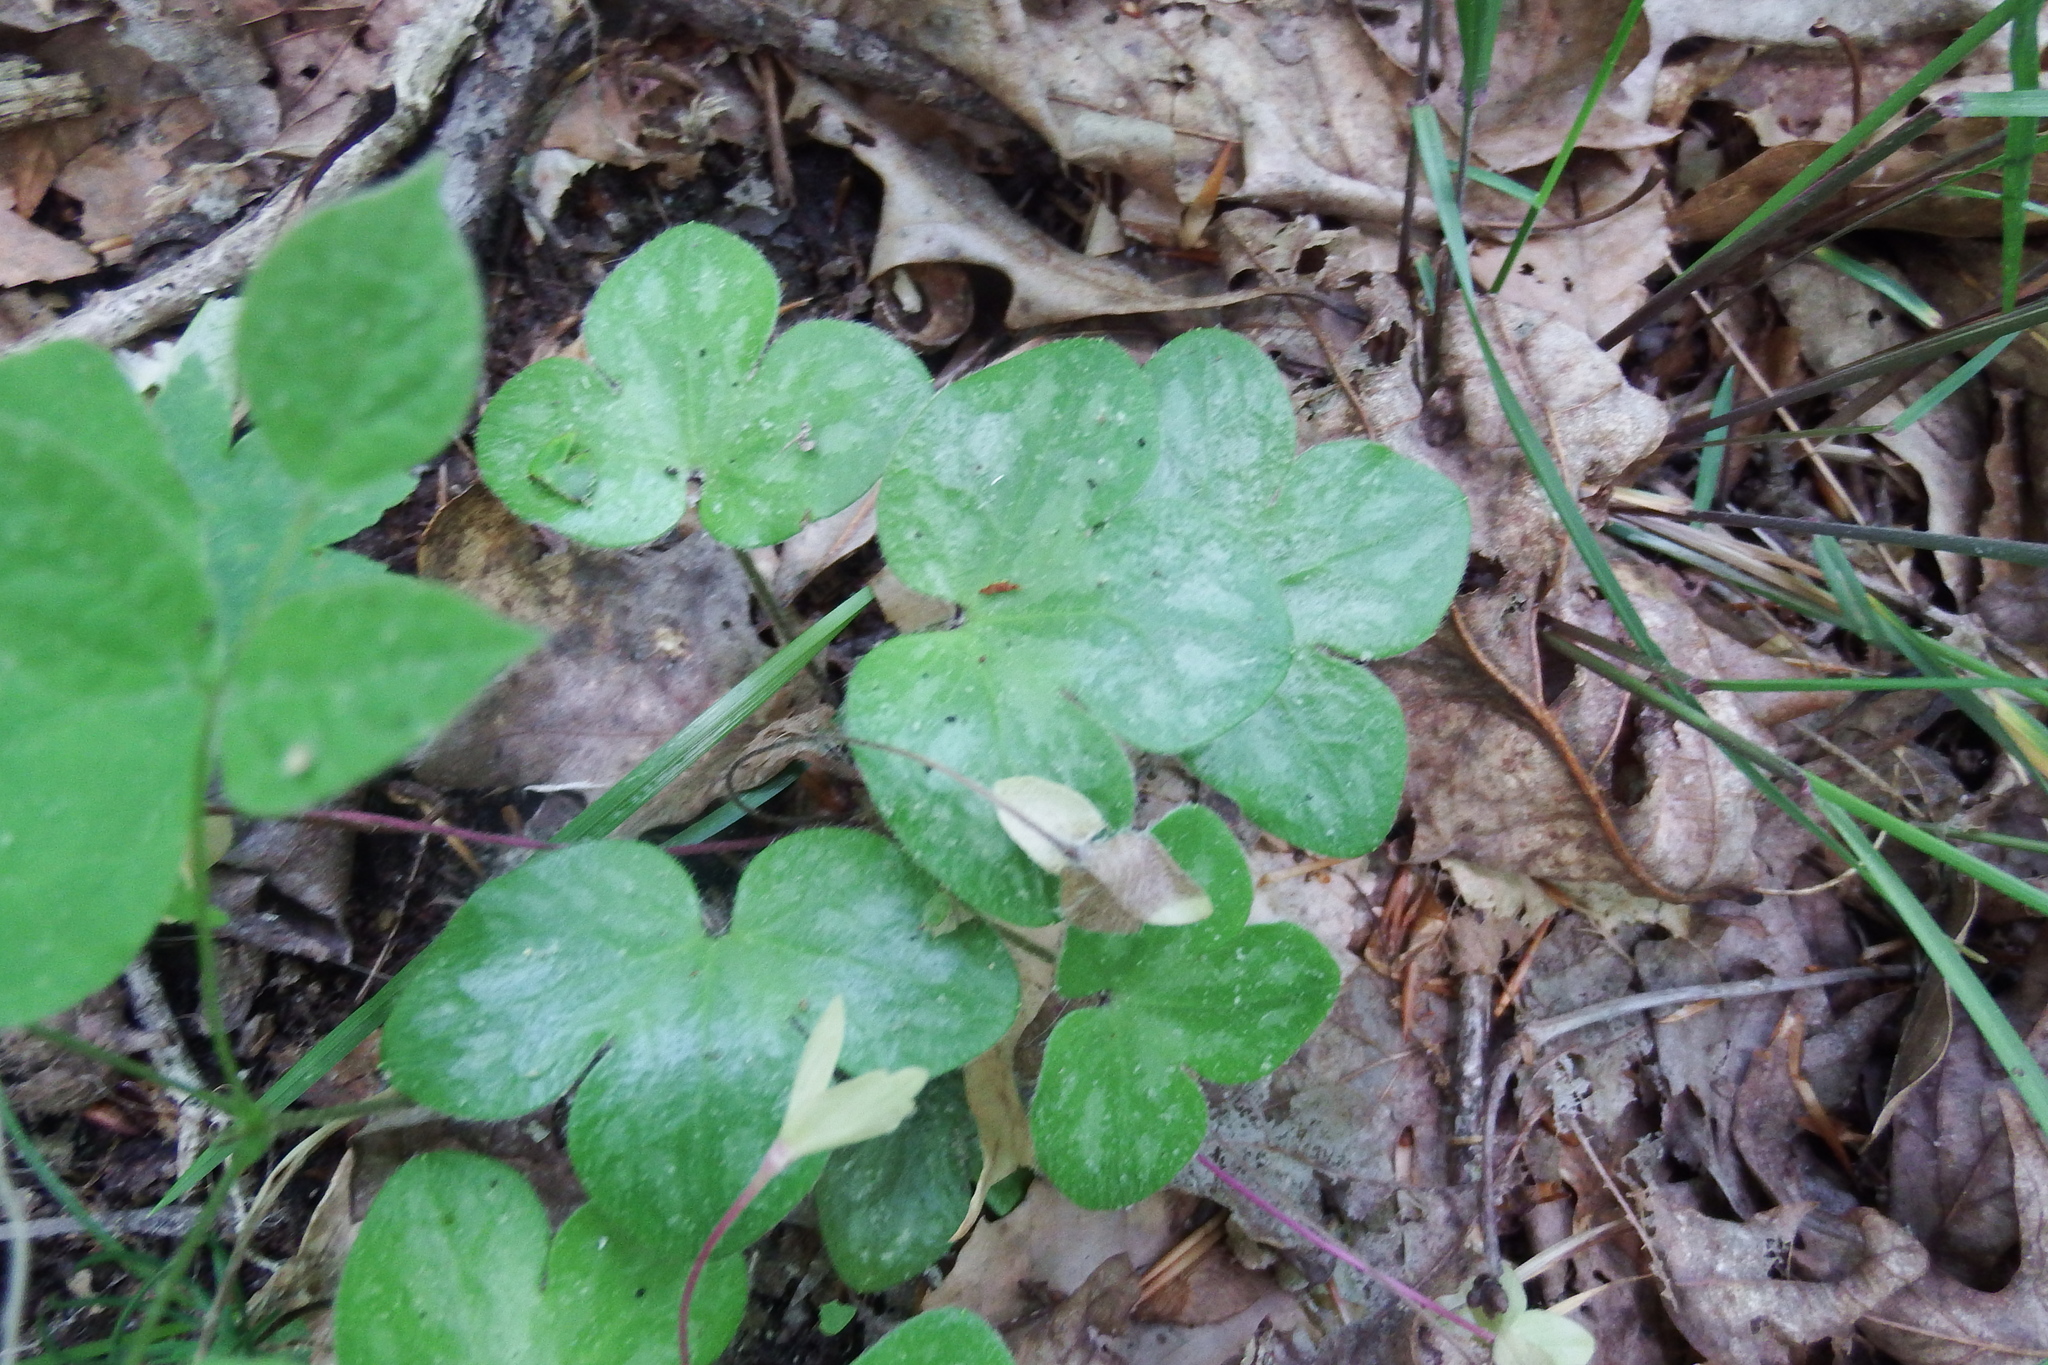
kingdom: Plantae
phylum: Tracheophyta
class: Magnoliopsida
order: Ranunculales
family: Ranunculaceae
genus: Hepatica
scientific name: Hepatica americana
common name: American hepatica
